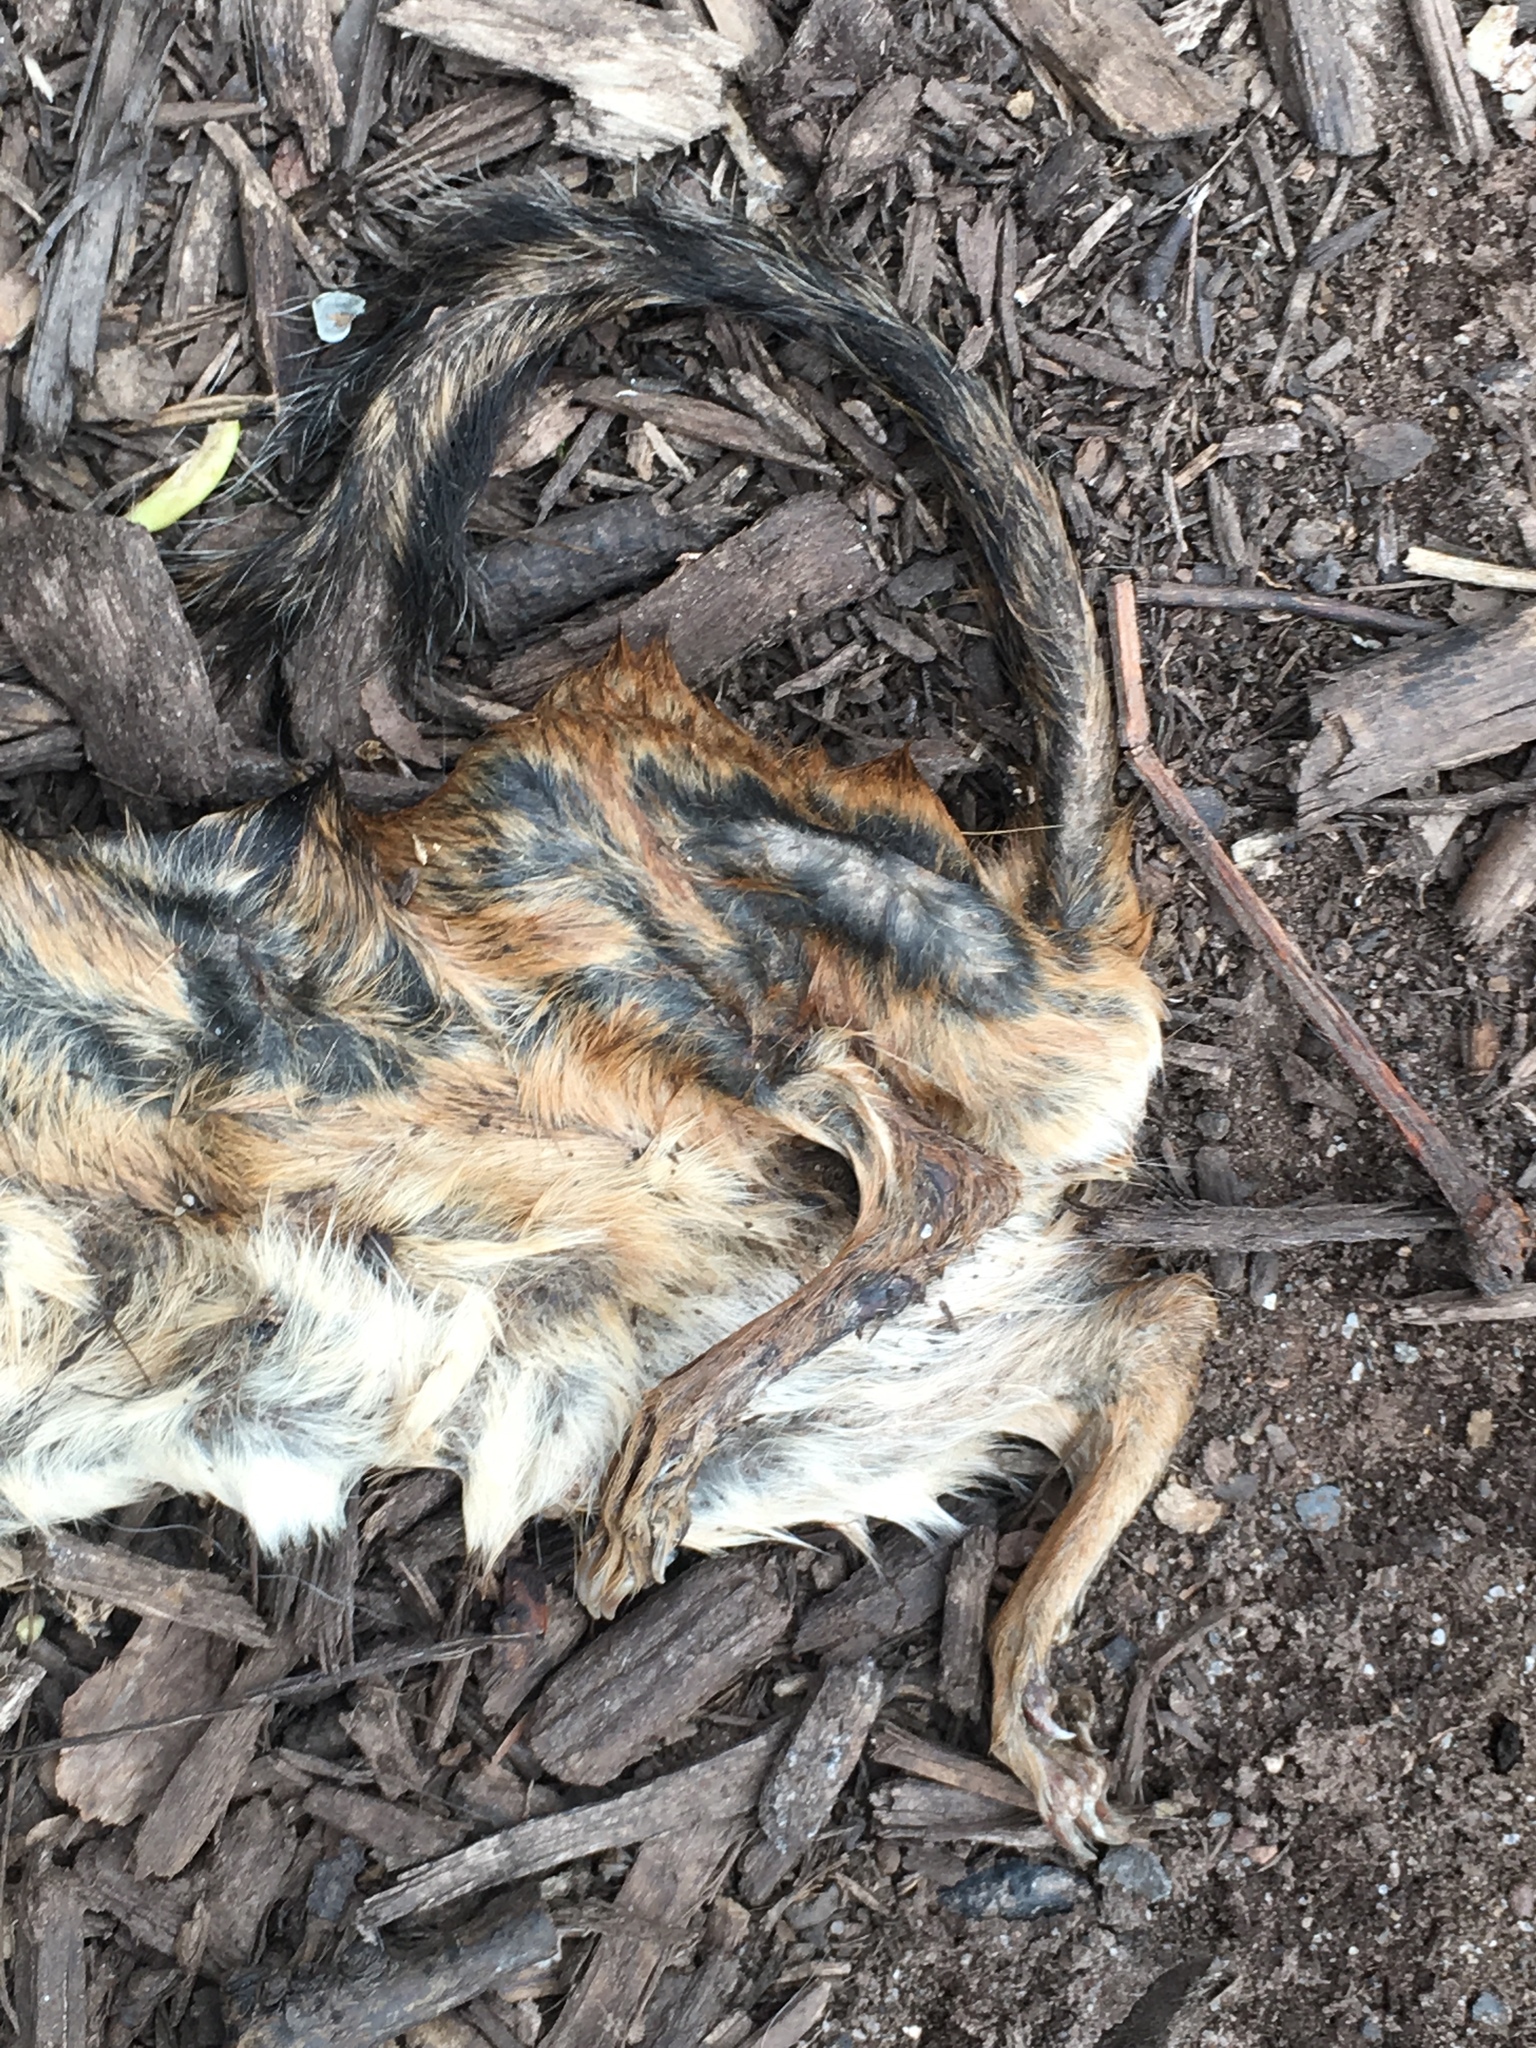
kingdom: Animalia
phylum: Chordata
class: Mammalia
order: Rodentia
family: Sciuridae
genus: Tamias
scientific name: Tamias striatus
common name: Eastern chipmunk
